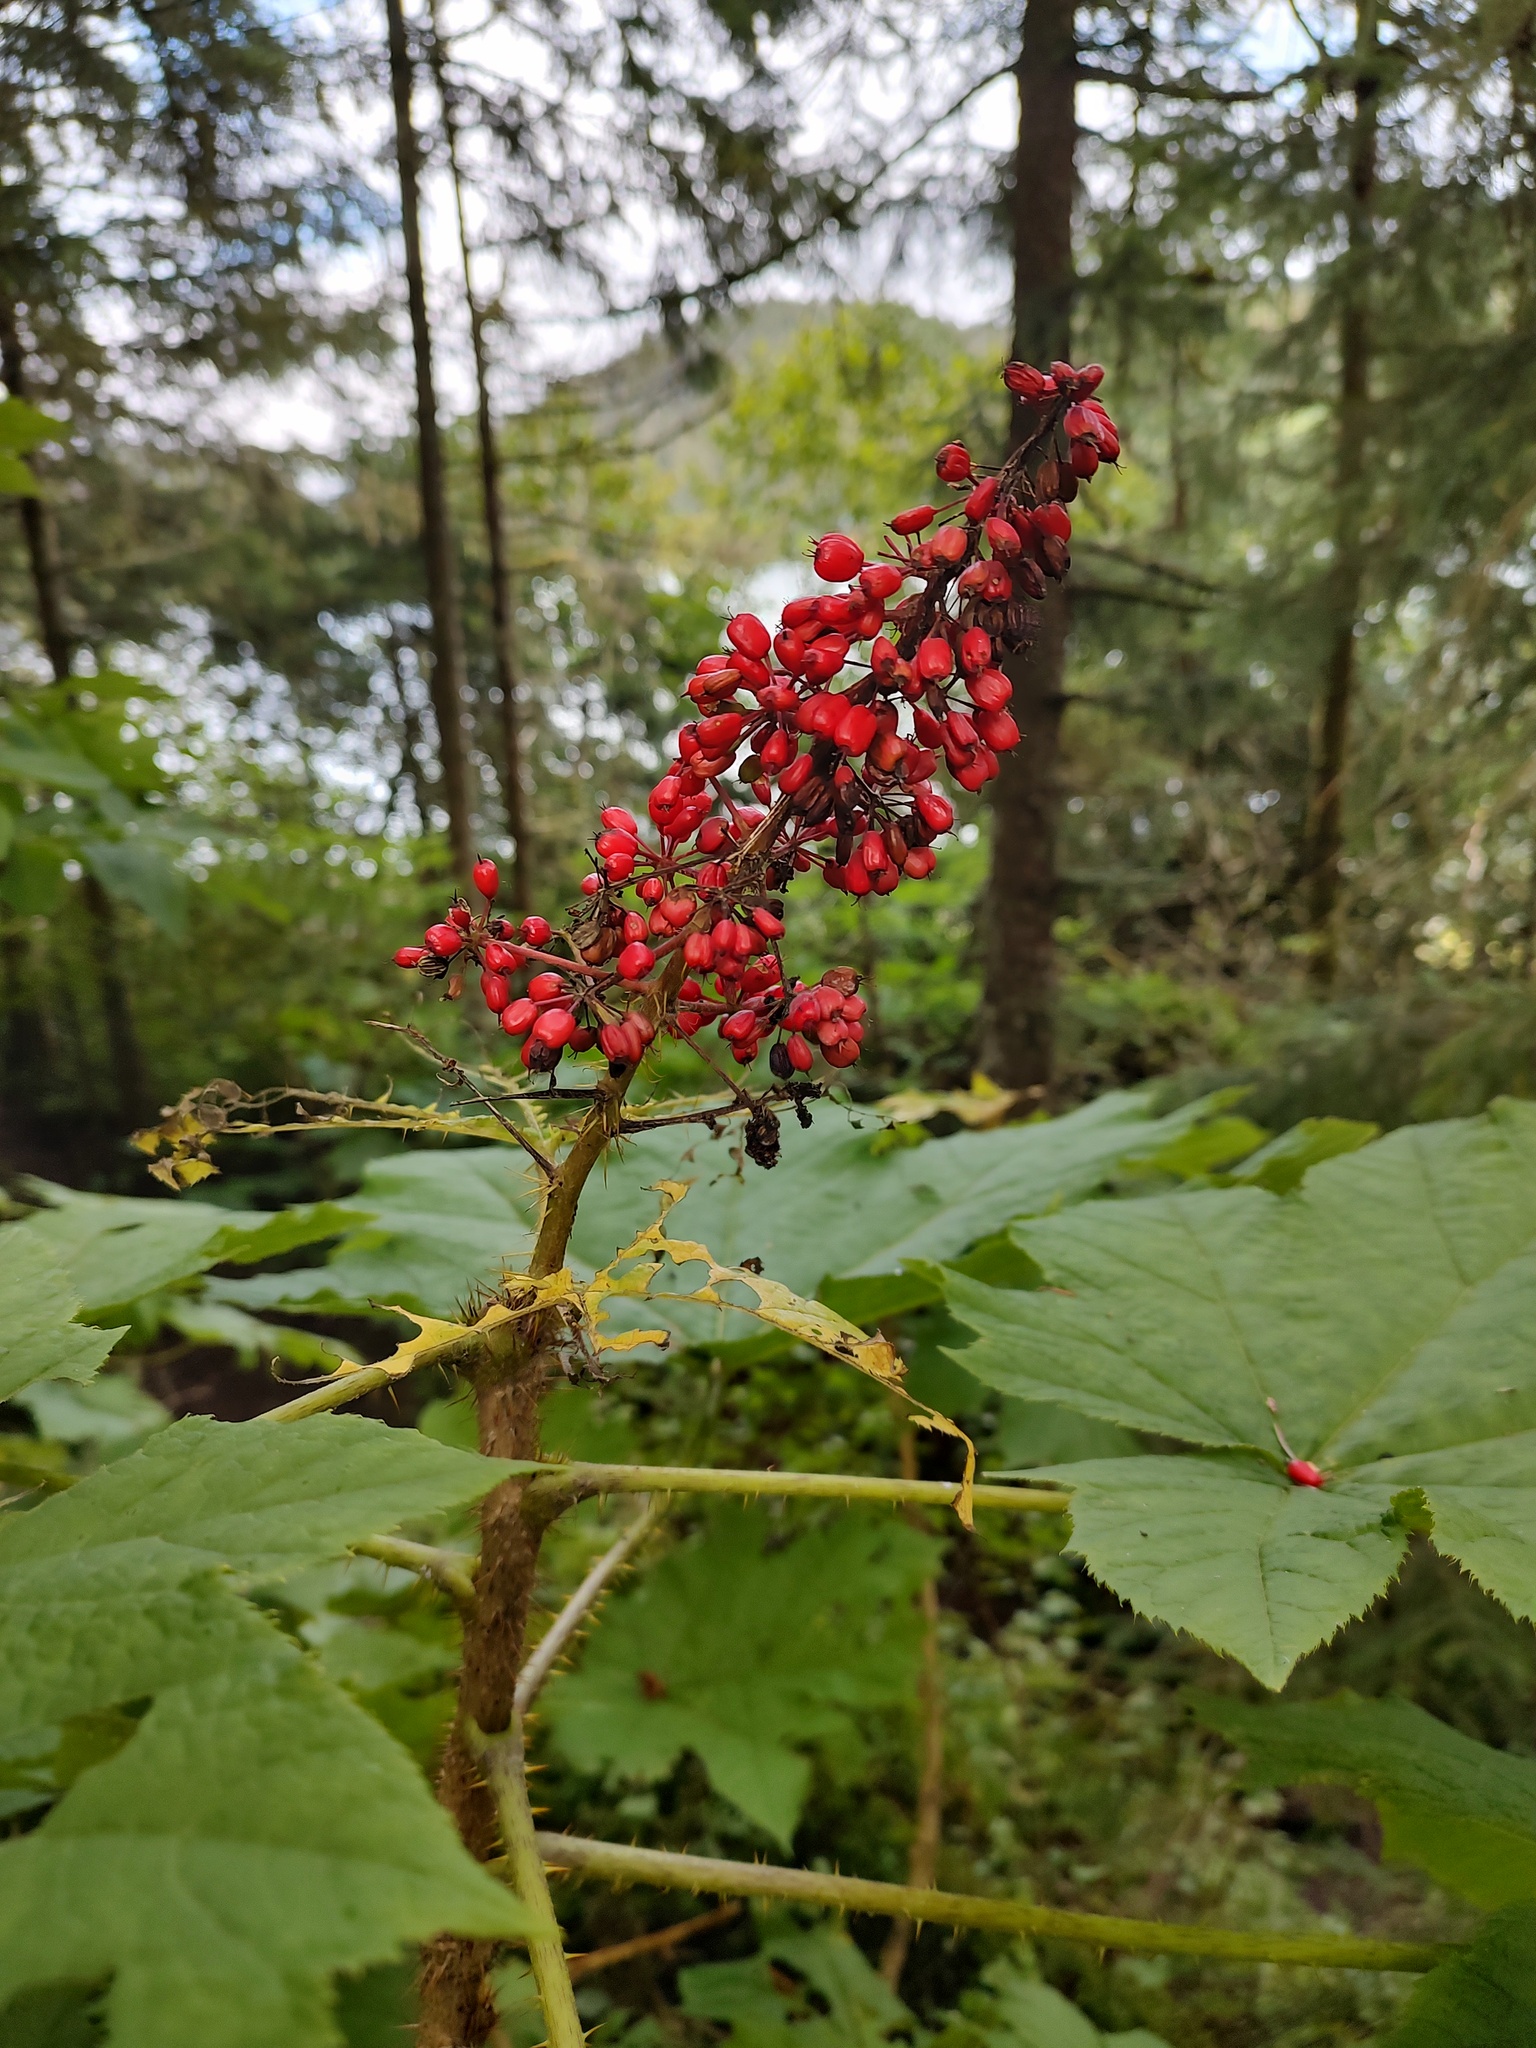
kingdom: Plantae
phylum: Tracheophyta
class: Magnoliopsida
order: Apiales
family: Araliaceae
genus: Oplopanax
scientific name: Oplopanax horridus
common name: Devil's walking-stick
